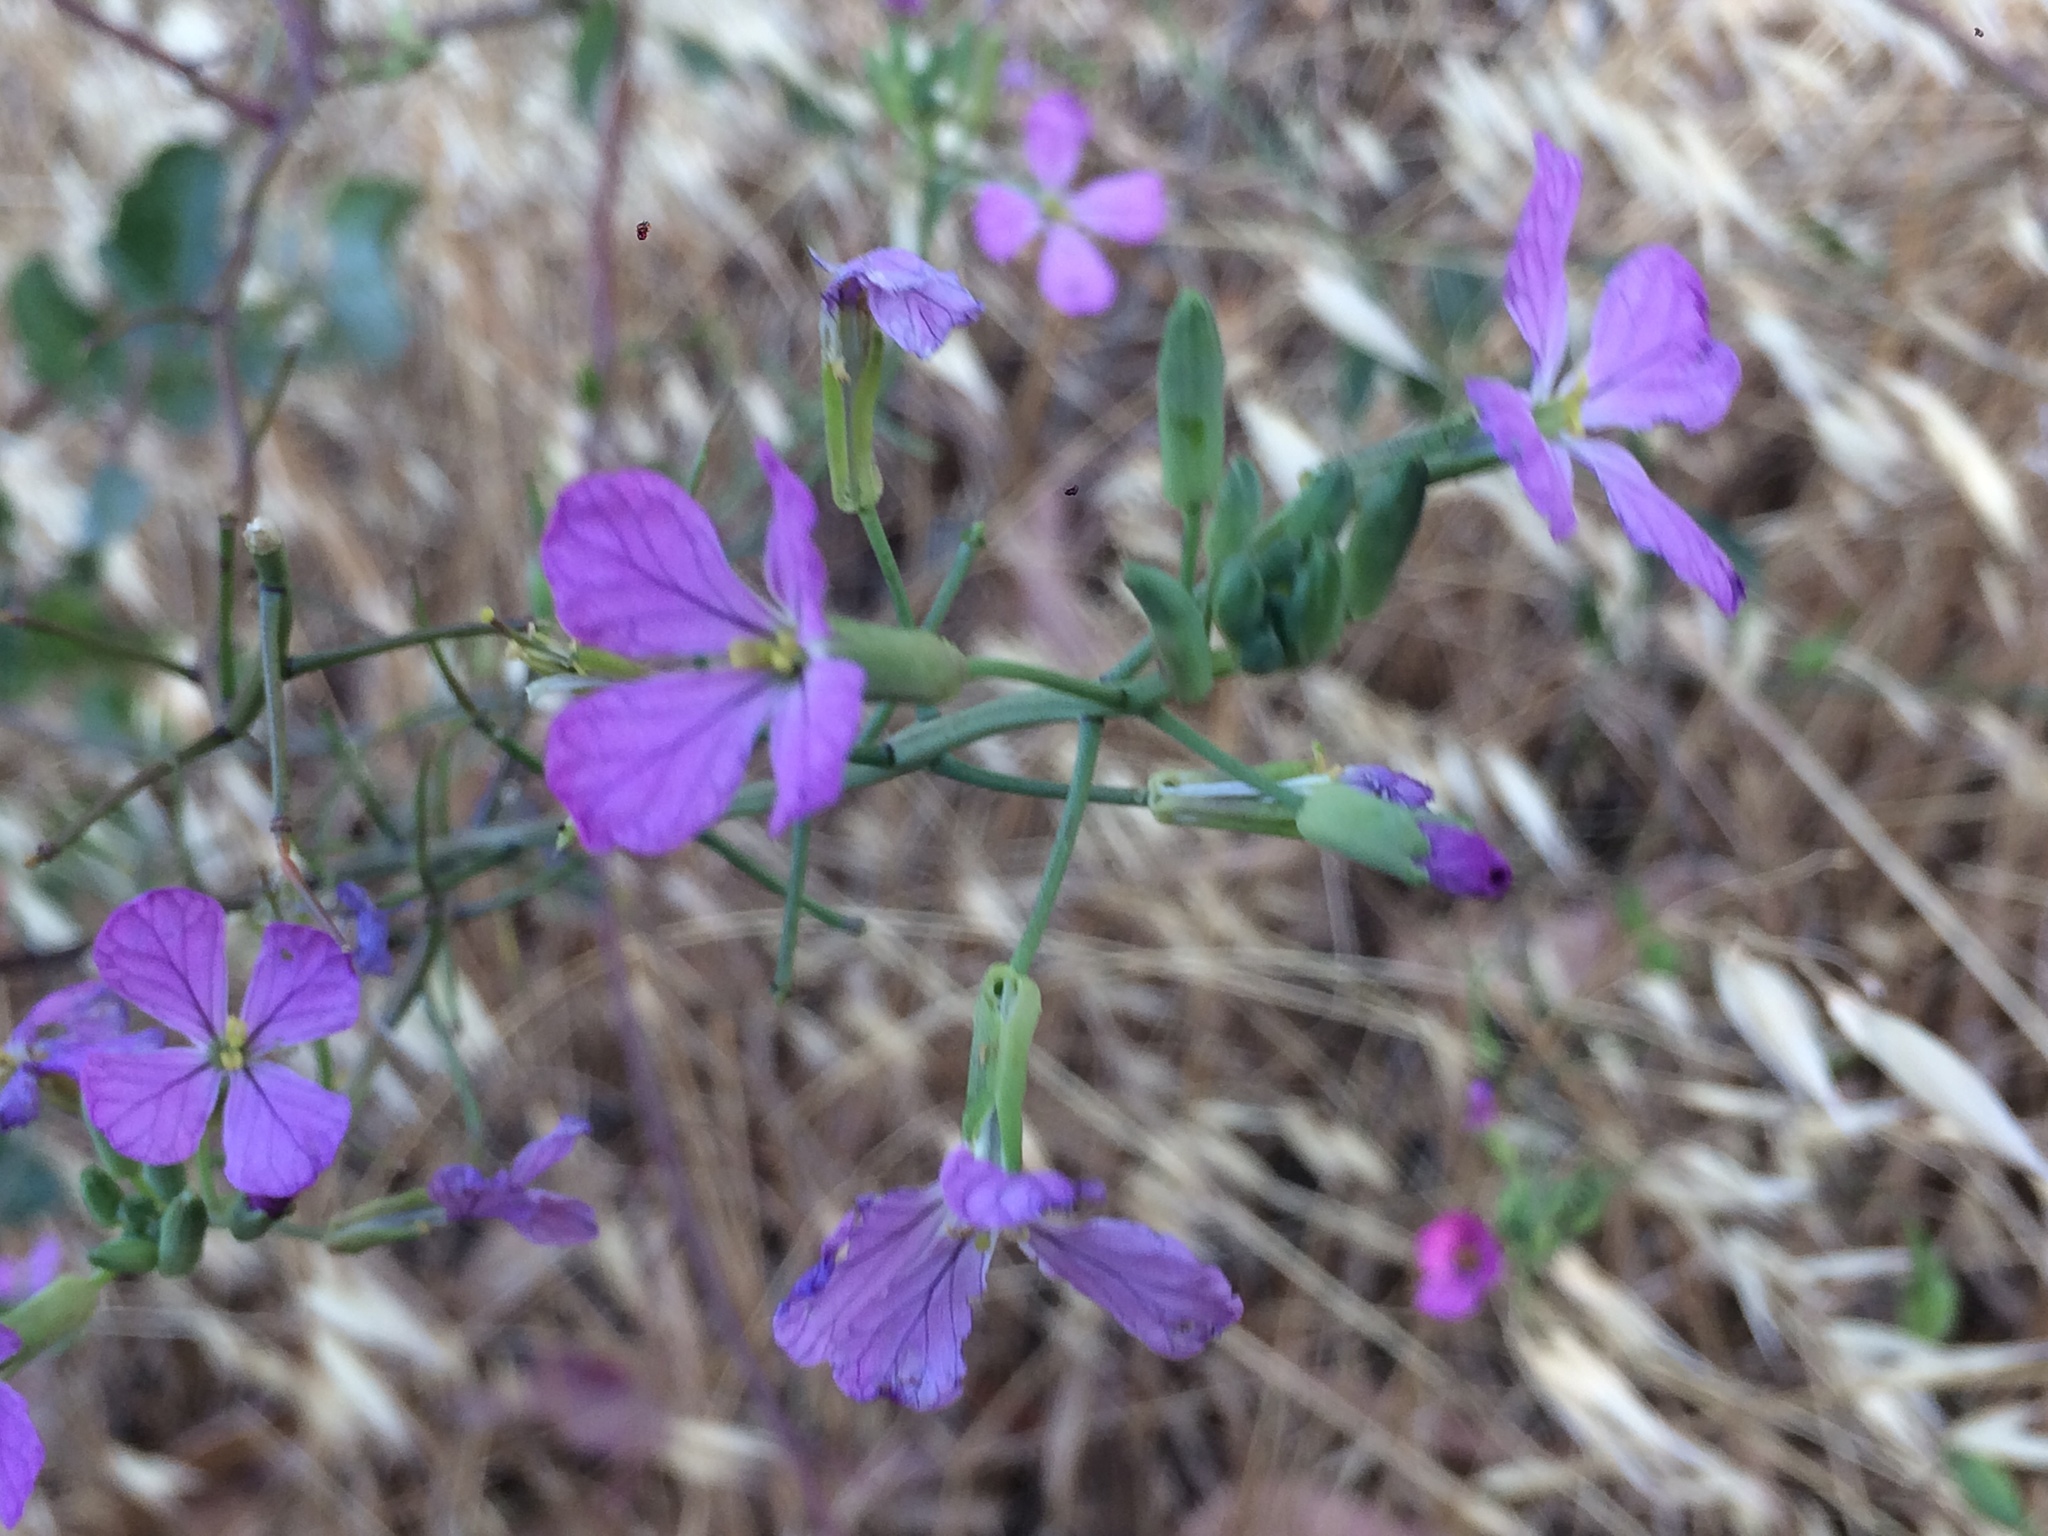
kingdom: Plantae
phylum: Tracheophyta
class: Magnoliopsida
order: Brassicales
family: Brassicaceae
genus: Raphanus
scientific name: Raphanus sativus
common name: Cultivated radish
